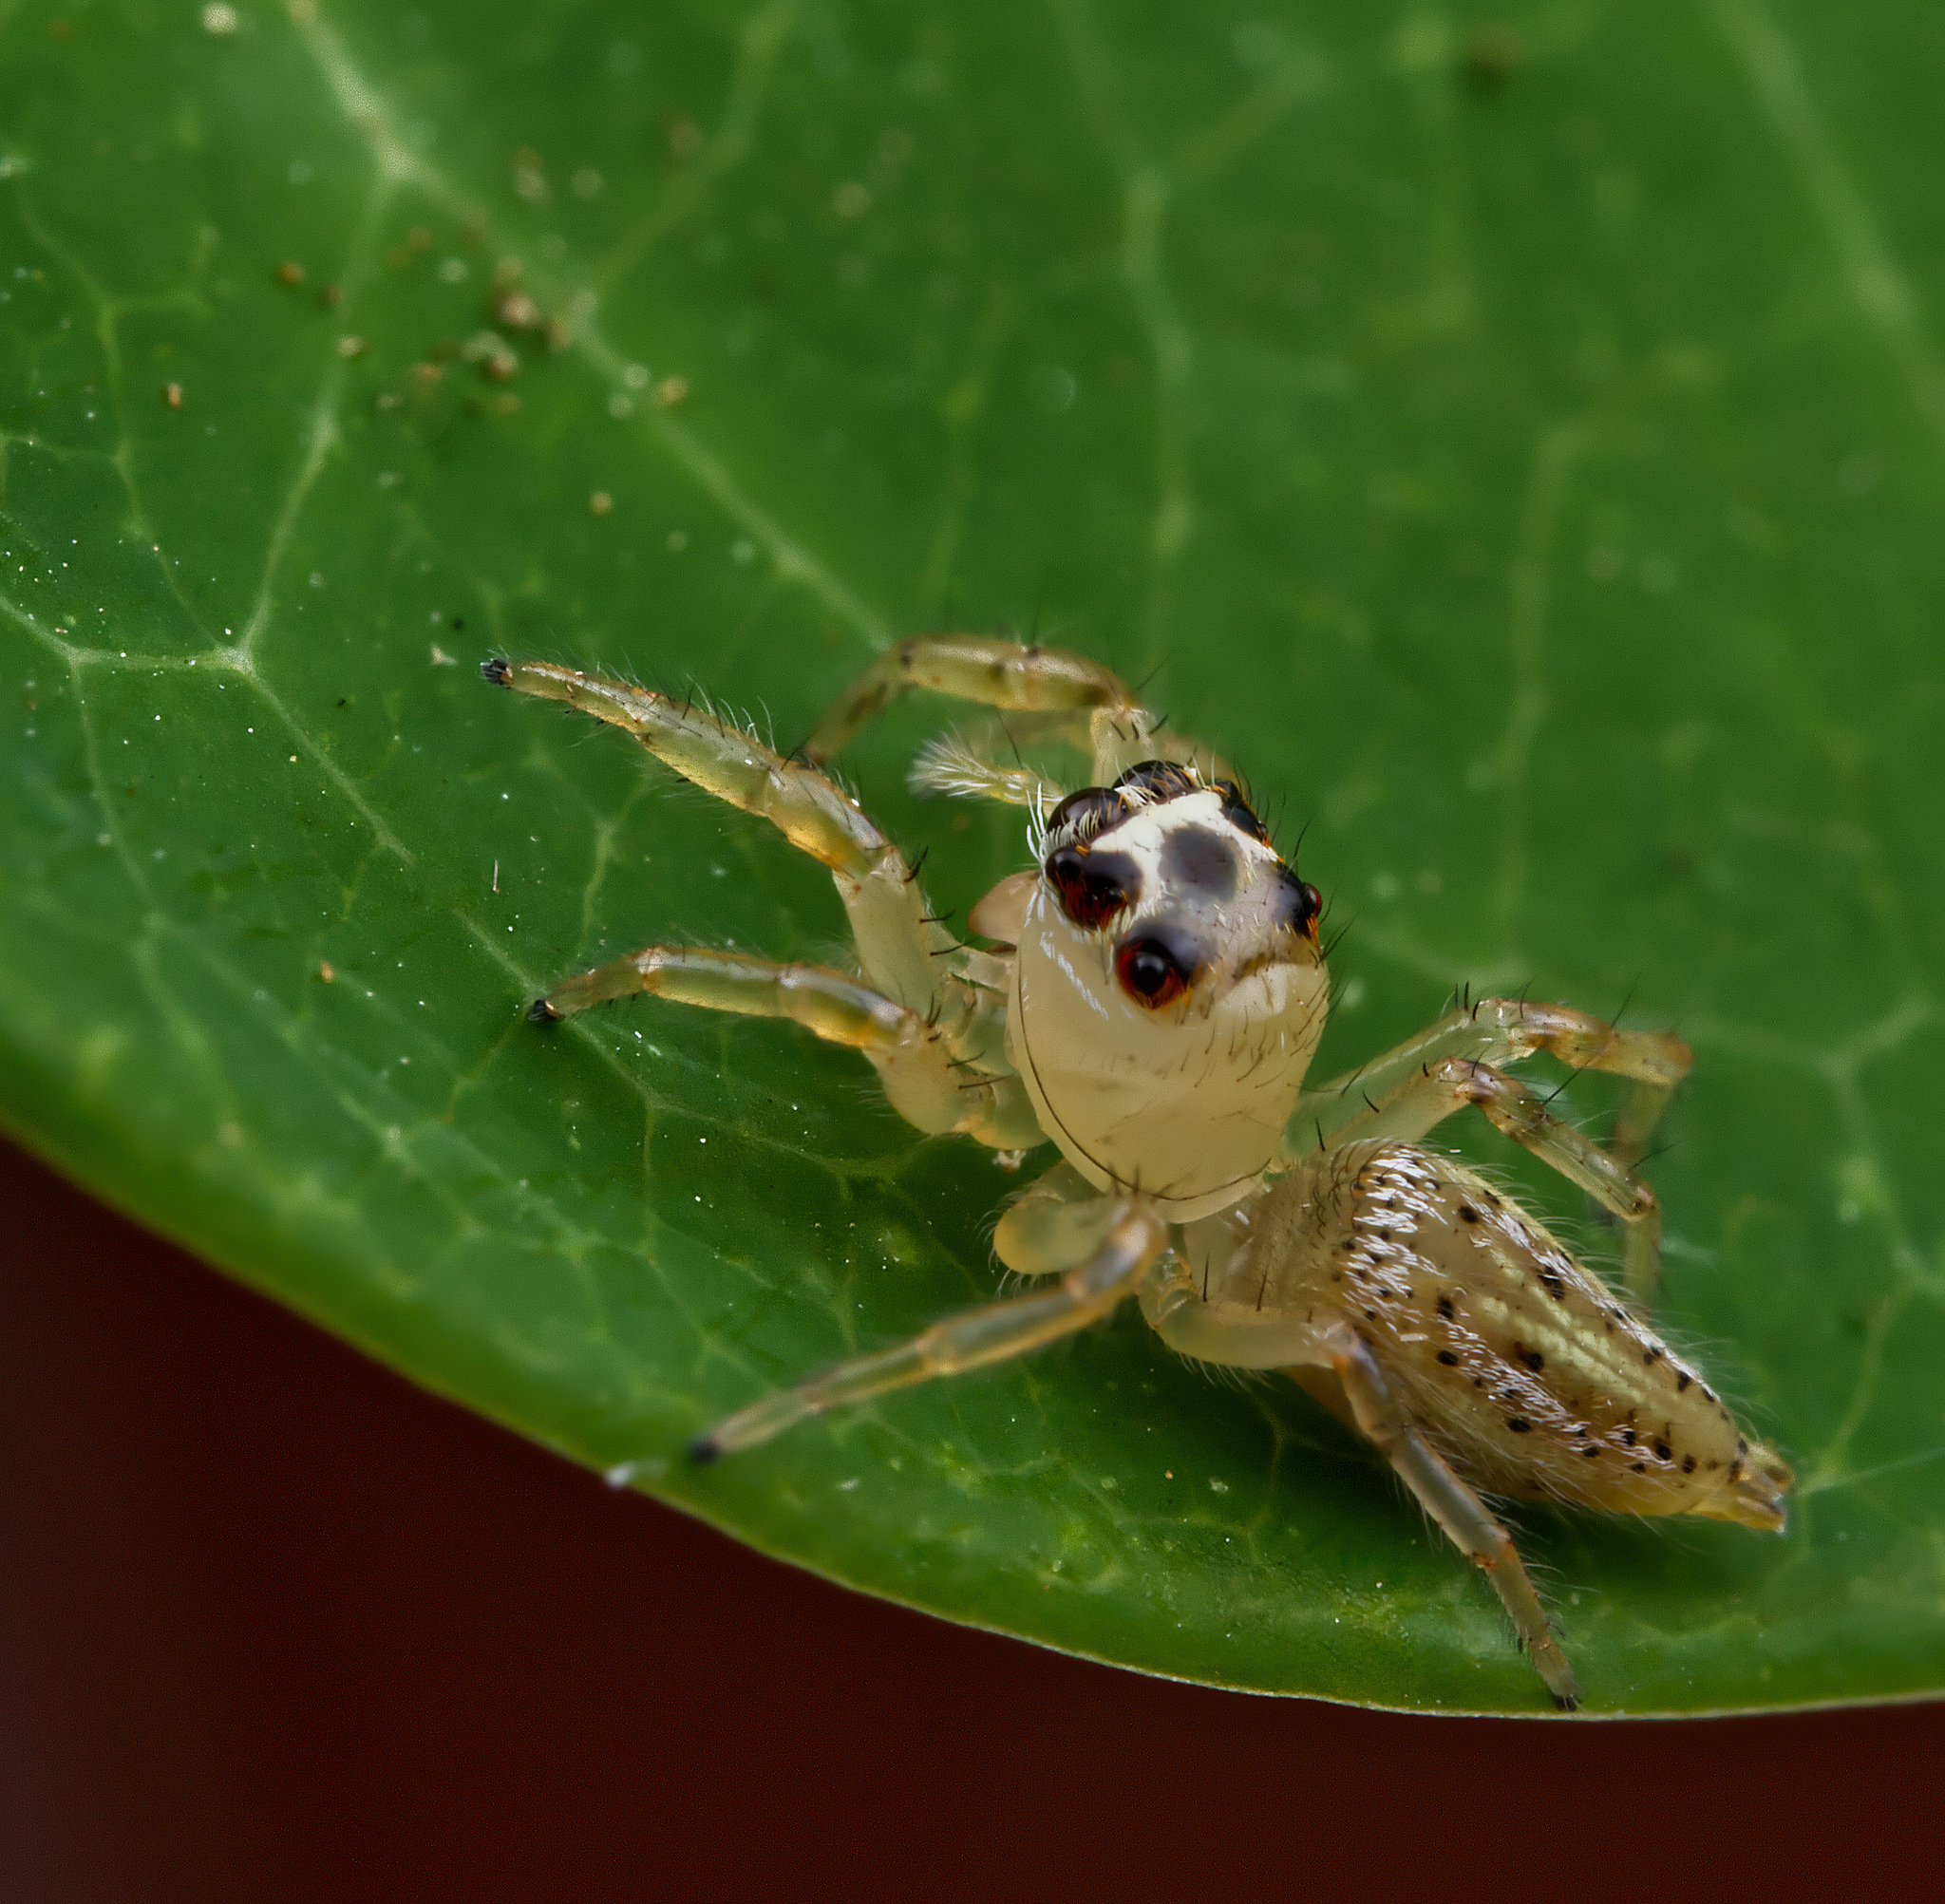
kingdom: Animalia
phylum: Arthropoda
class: Arachnida
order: Araneae
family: Salticidae
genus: Colonus
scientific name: Colonus sylvanus
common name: Jumping spiders
